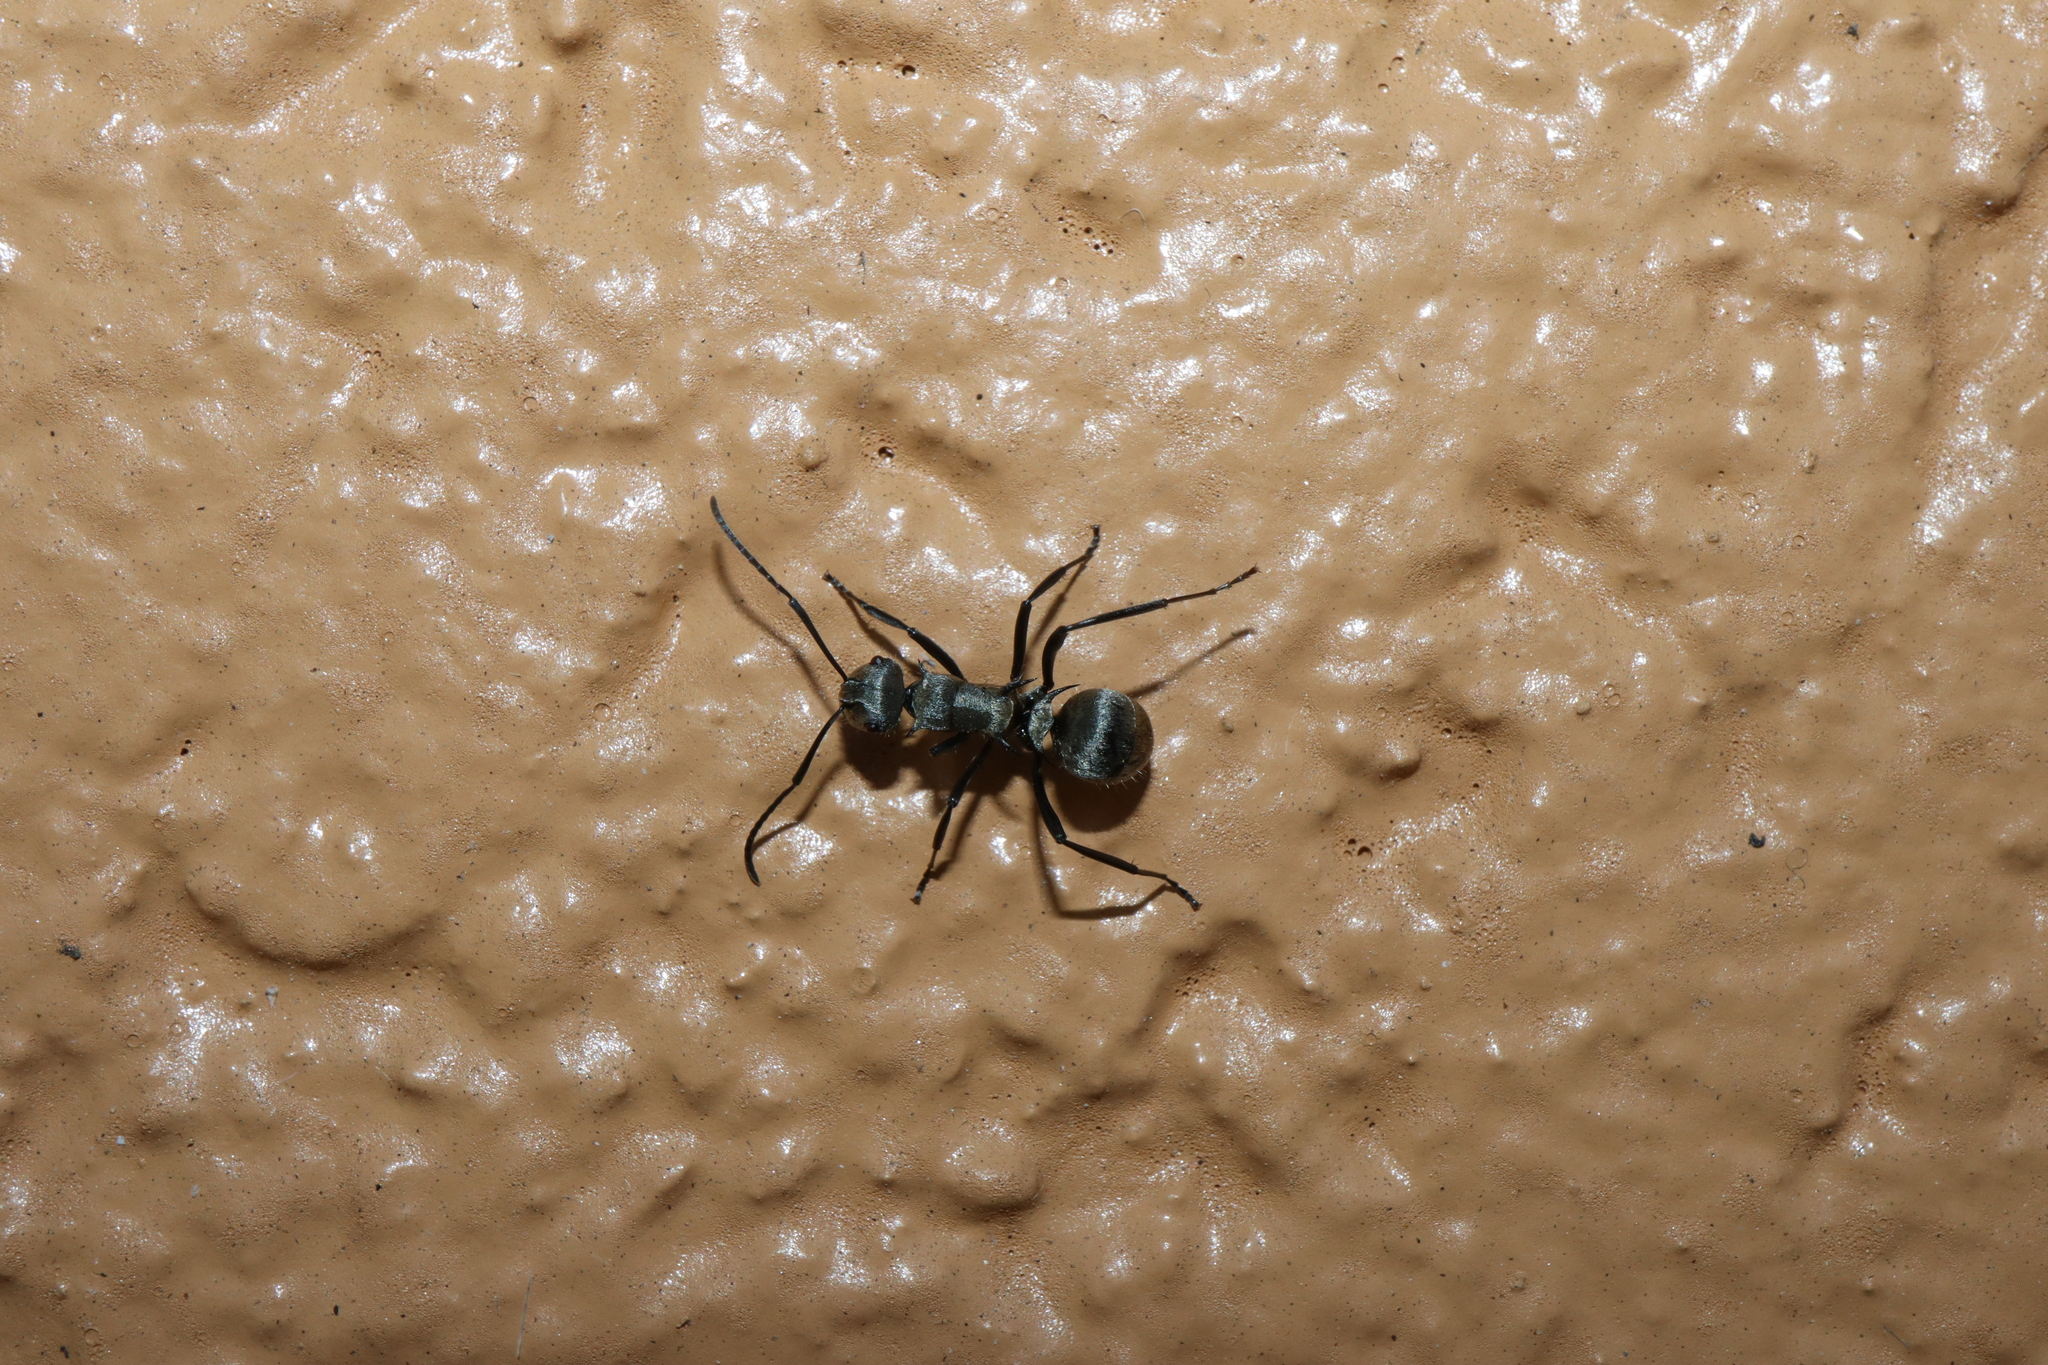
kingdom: Animalia
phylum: Arthropoda
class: Insecta
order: Hymenoptera
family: Formicidae
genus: Polyrhachis
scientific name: Polyrhachis cupreata
